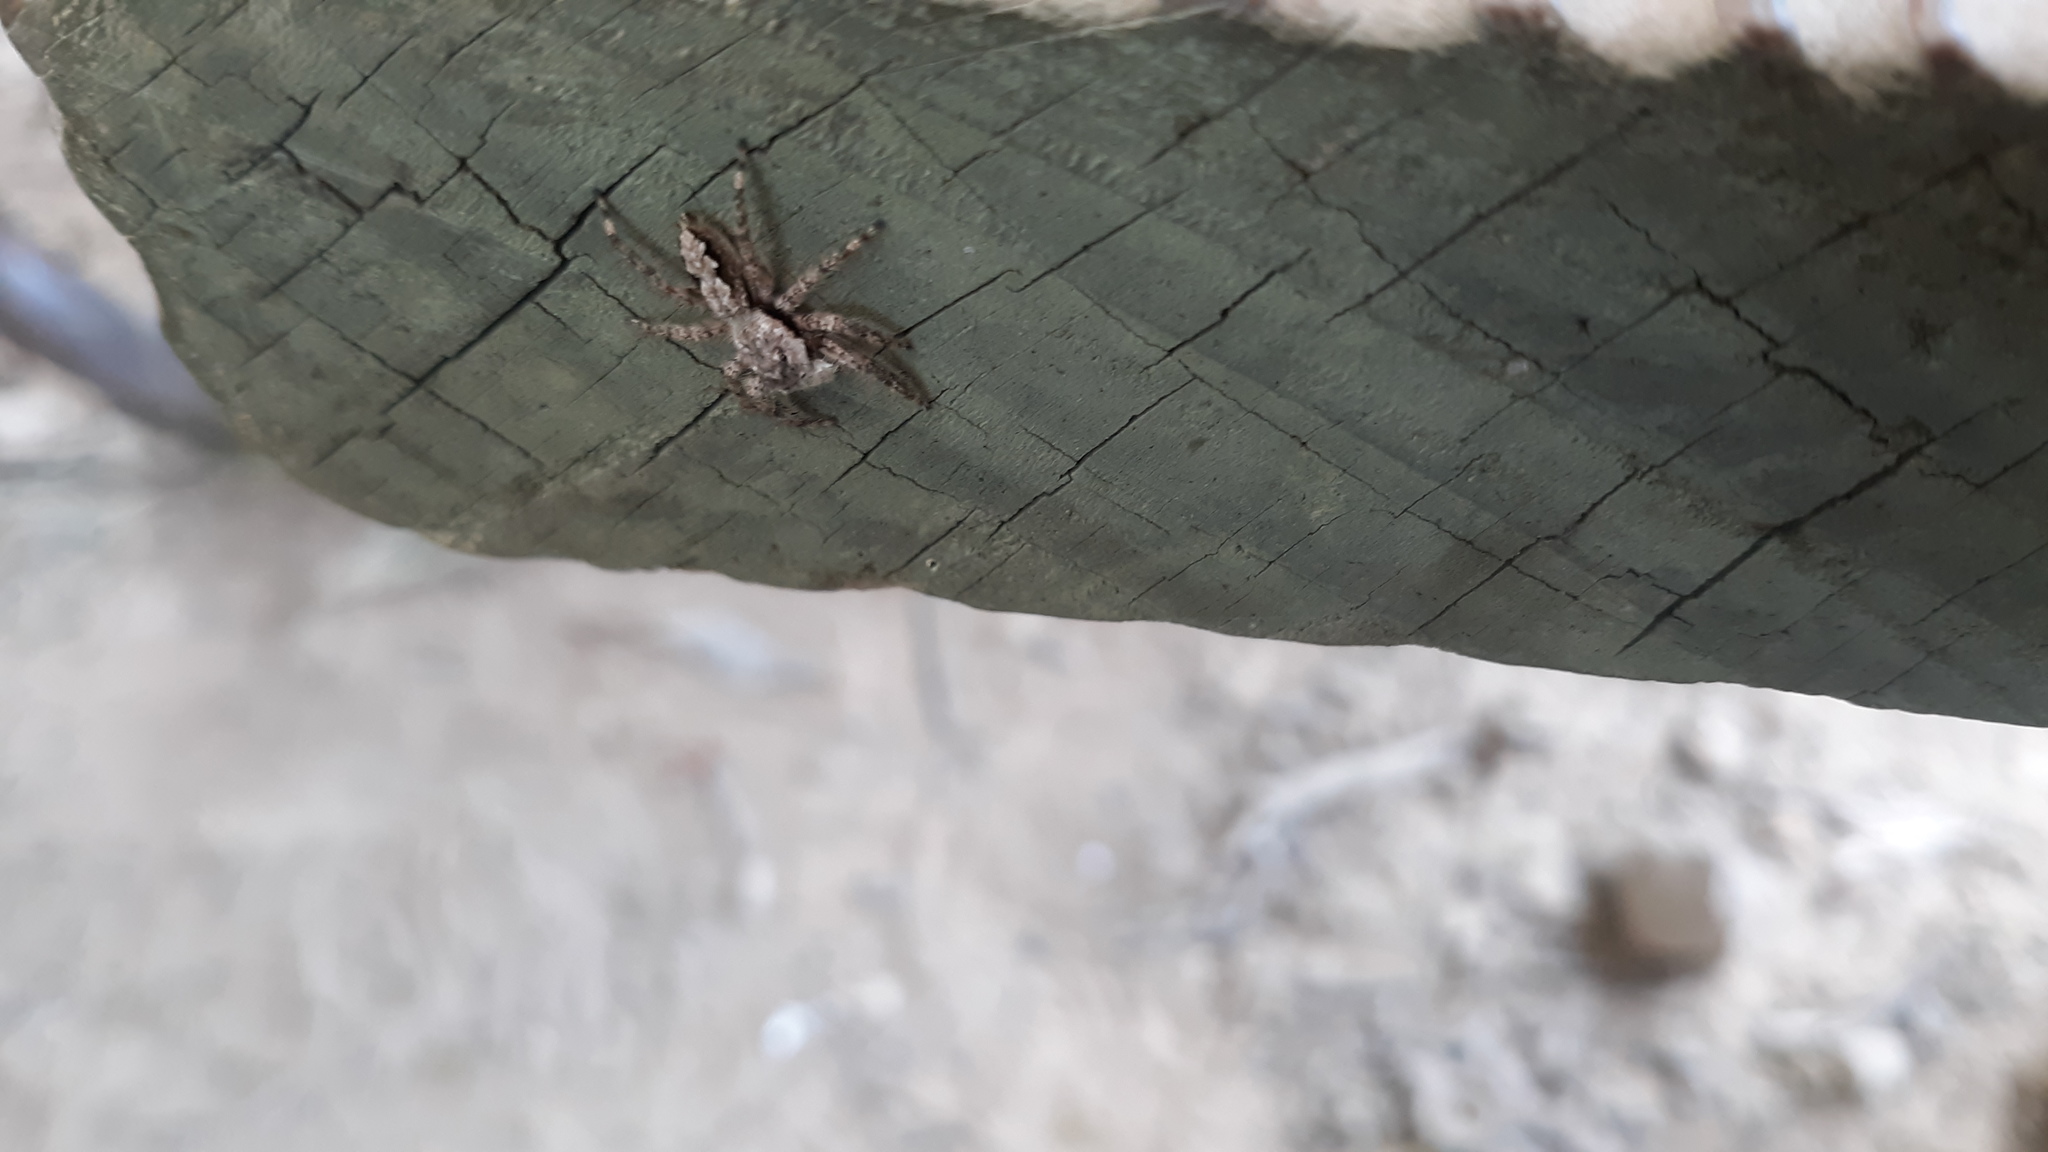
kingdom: Animalia
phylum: Arthropoda
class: Arachnida
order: Araneae
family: Salticidae
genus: Platycryptus
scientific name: Platycryptus undatus
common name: Tan jumping spider
